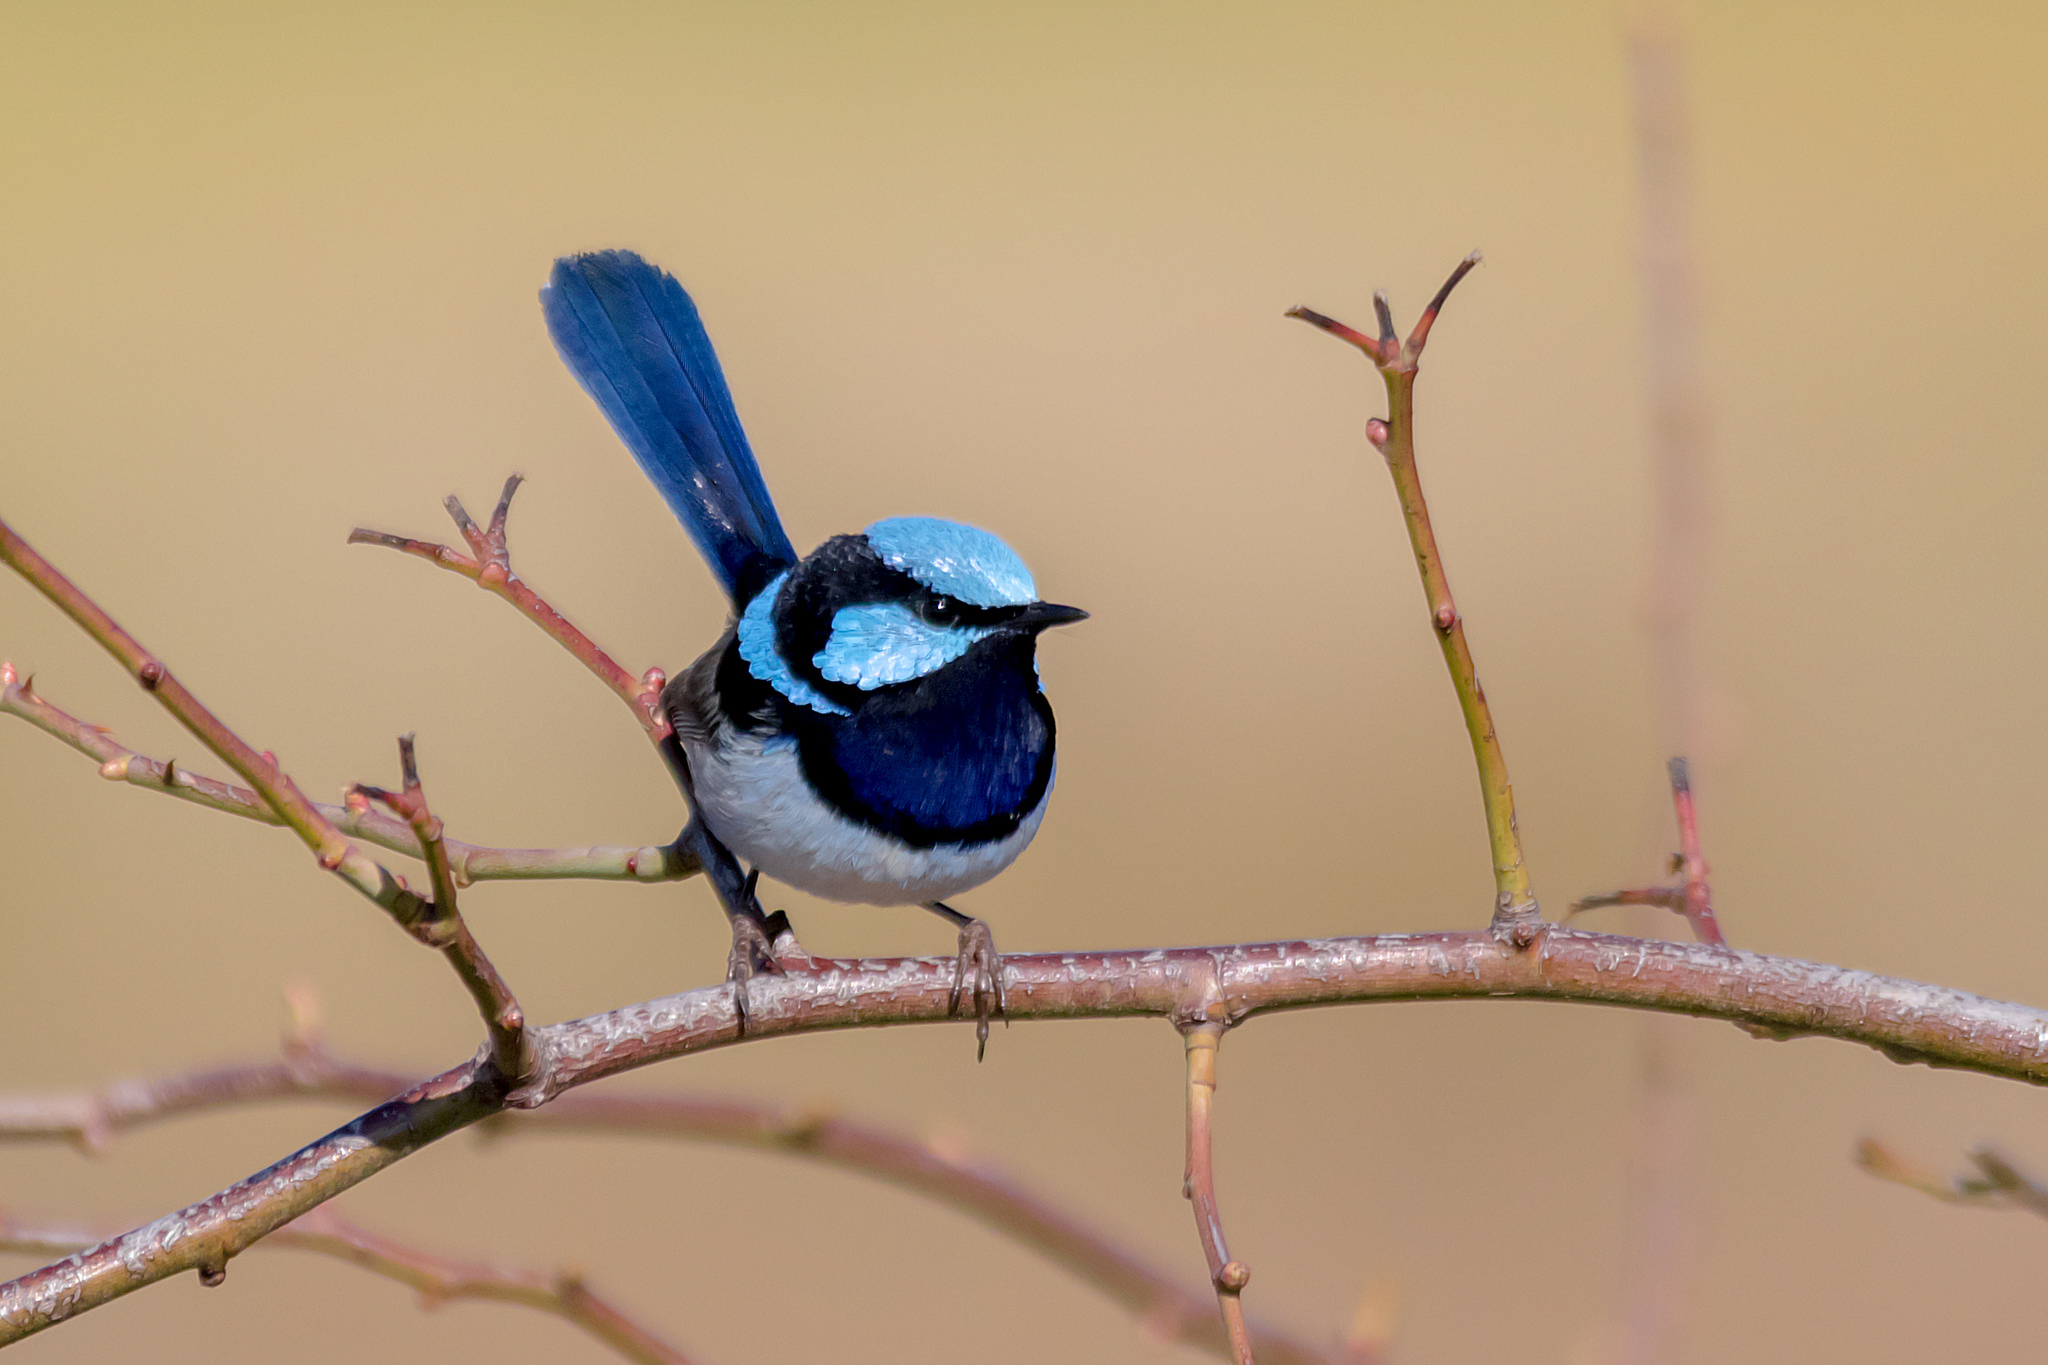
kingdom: Animalia
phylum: Chordata
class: Aves
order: Passeriformes
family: Maluridae
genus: Malurus
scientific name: Malurus cyaneus
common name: Superb fairywren
